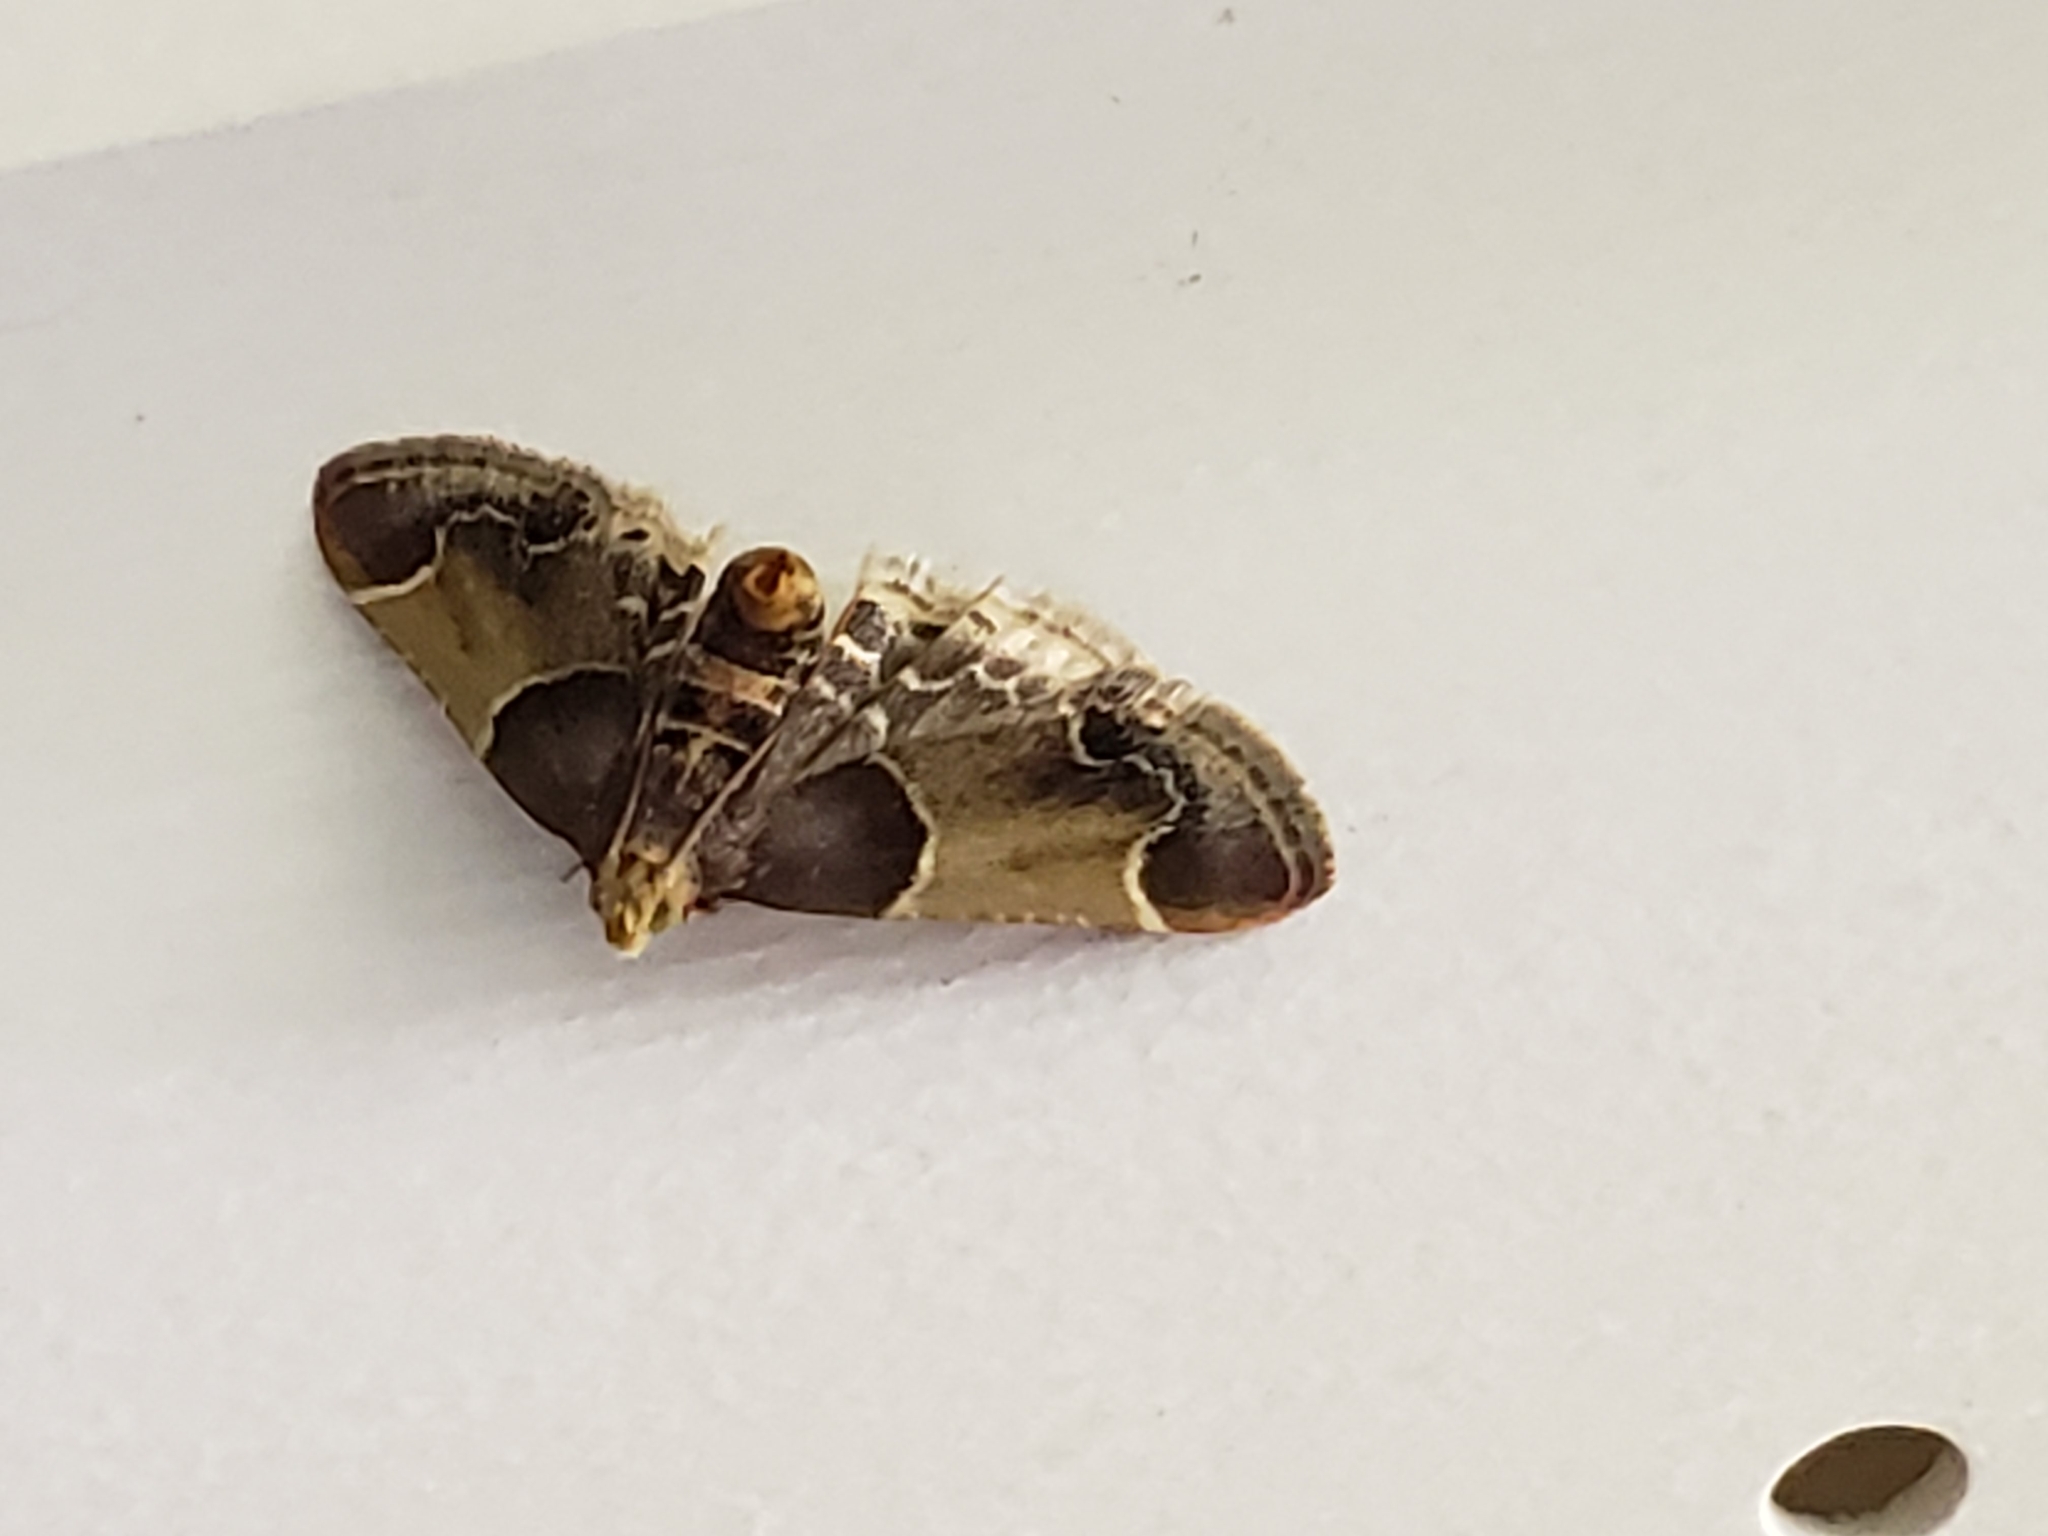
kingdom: Animalia
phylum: Arthropoda
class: Insecta
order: Lepidoptera
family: Pyralidae
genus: Pyralis
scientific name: Pyralis farinalis
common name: Meal moth
